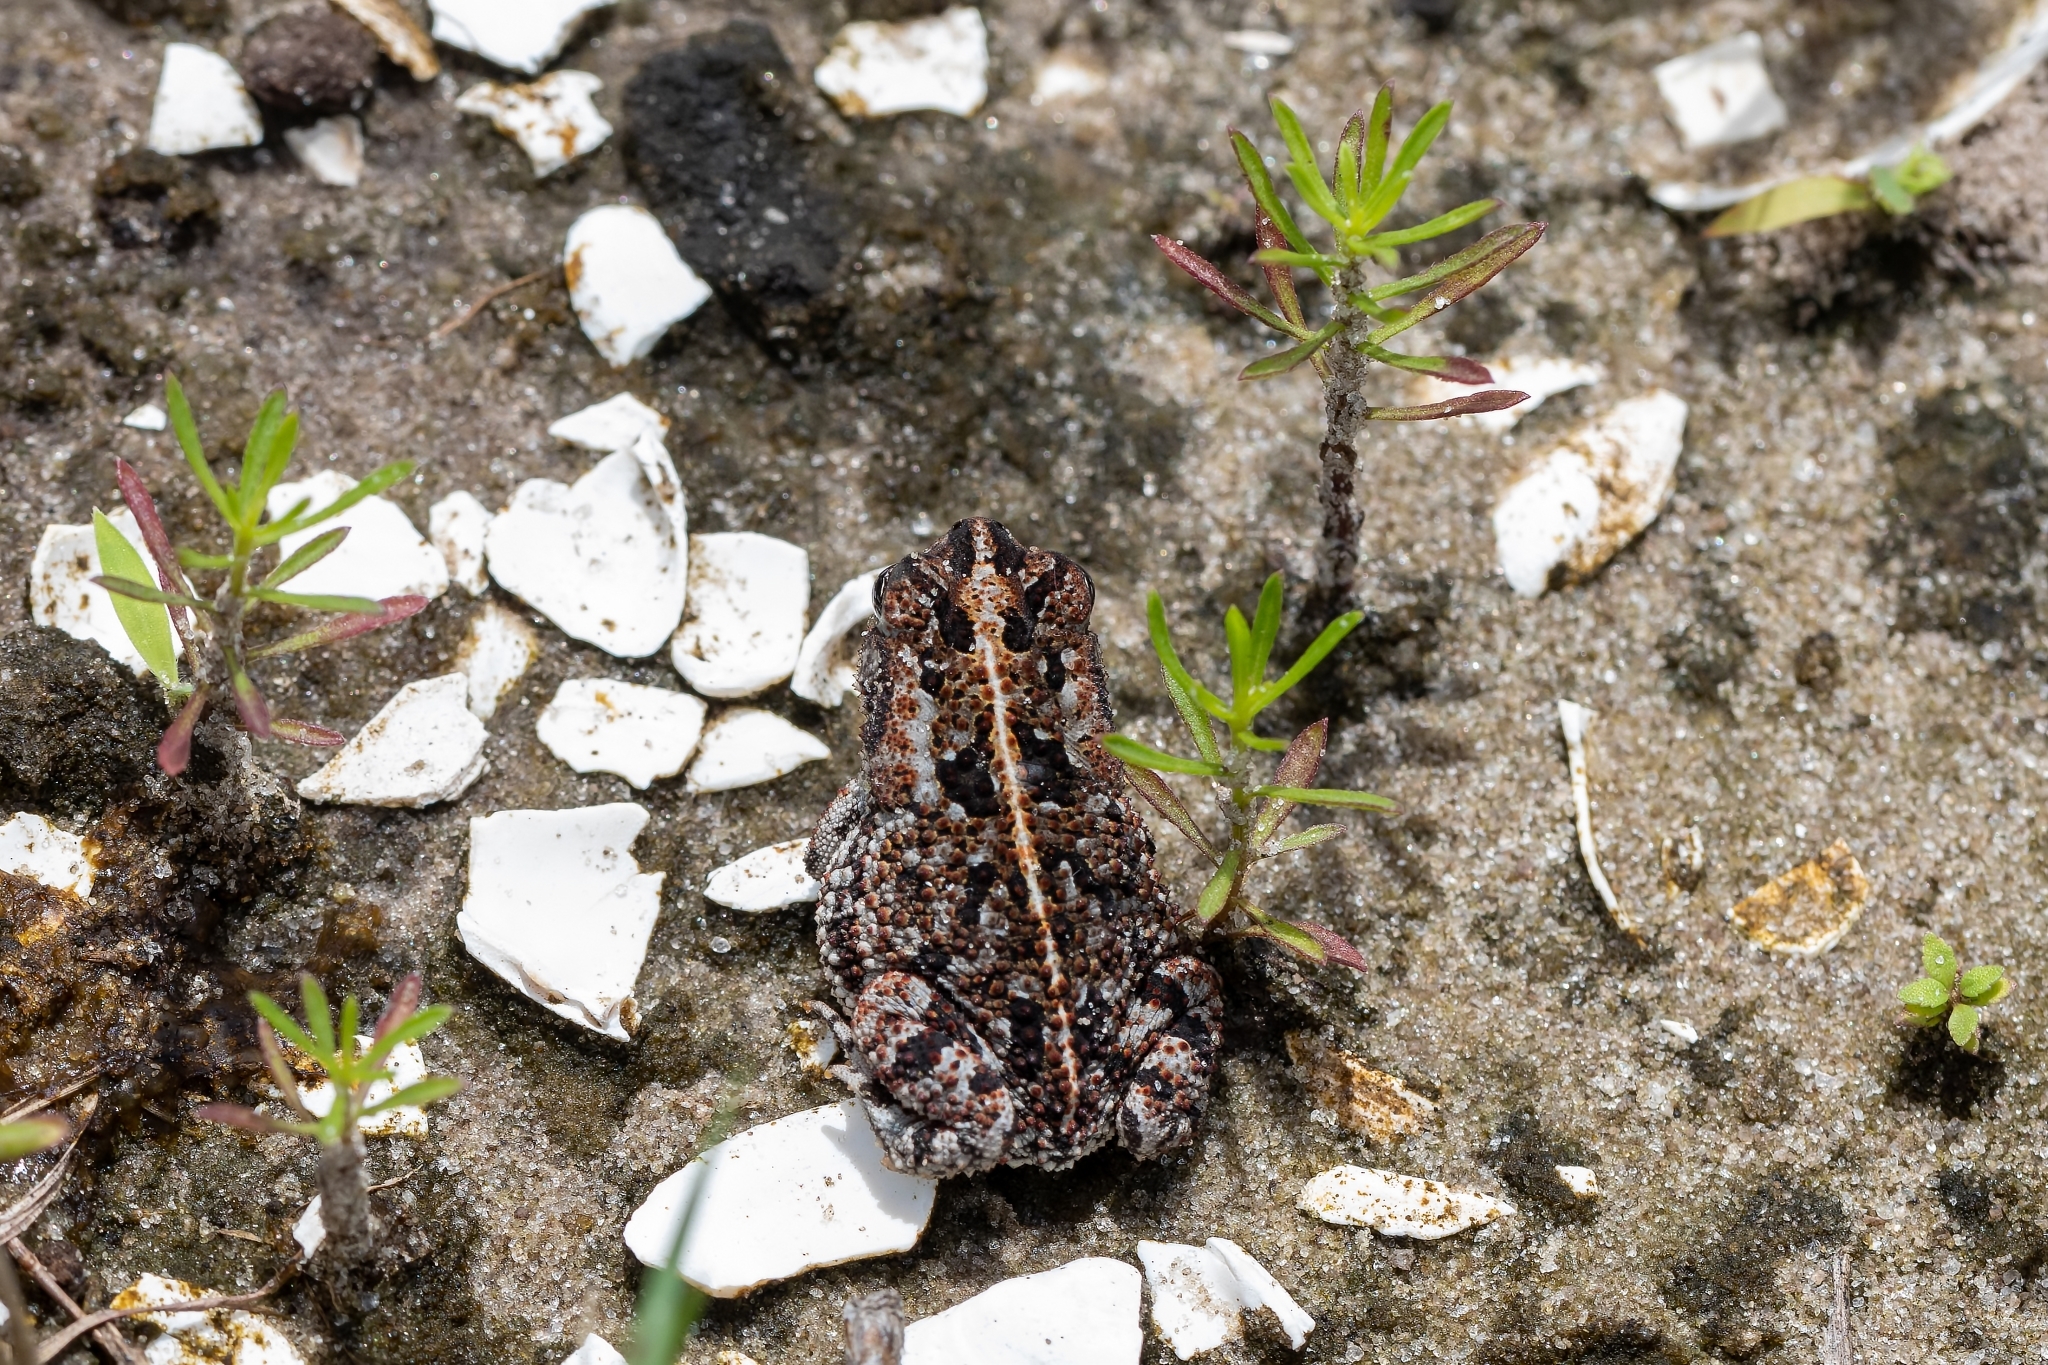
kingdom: Animalia
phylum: Chordata
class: Amphibia
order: Anura
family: Bufonidae
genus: Anaxyrus
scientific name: Anaxyrus quercicus
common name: Oak toad
